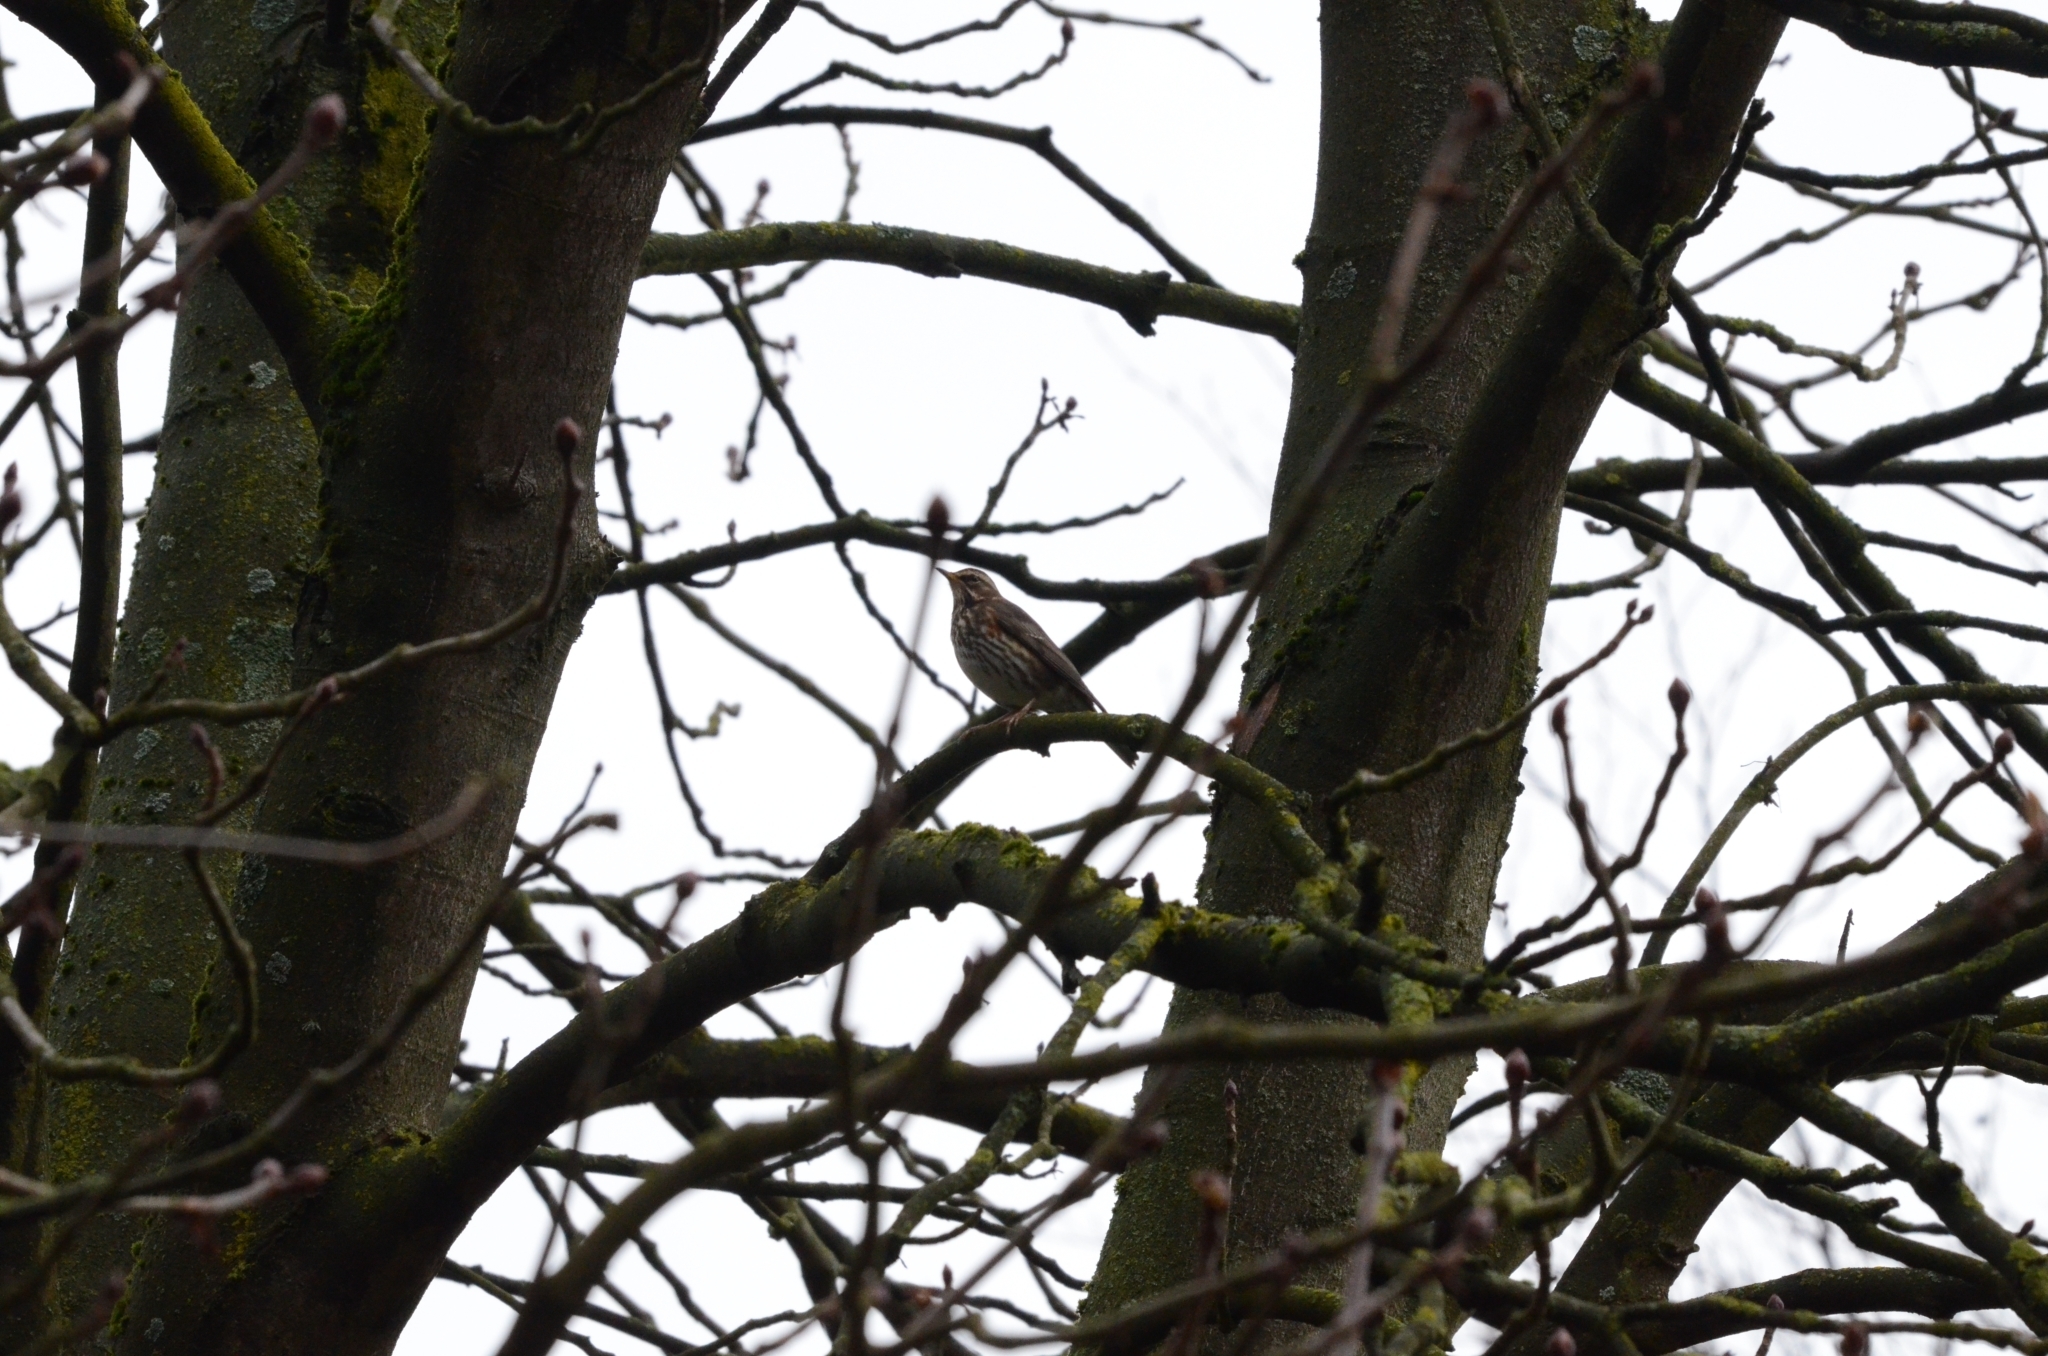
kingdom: Animalia
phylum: Chordata
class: Aves
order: Passeriformes
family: Turdidae
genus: Turdus
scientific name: Turdus iliacus
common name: Redwing
